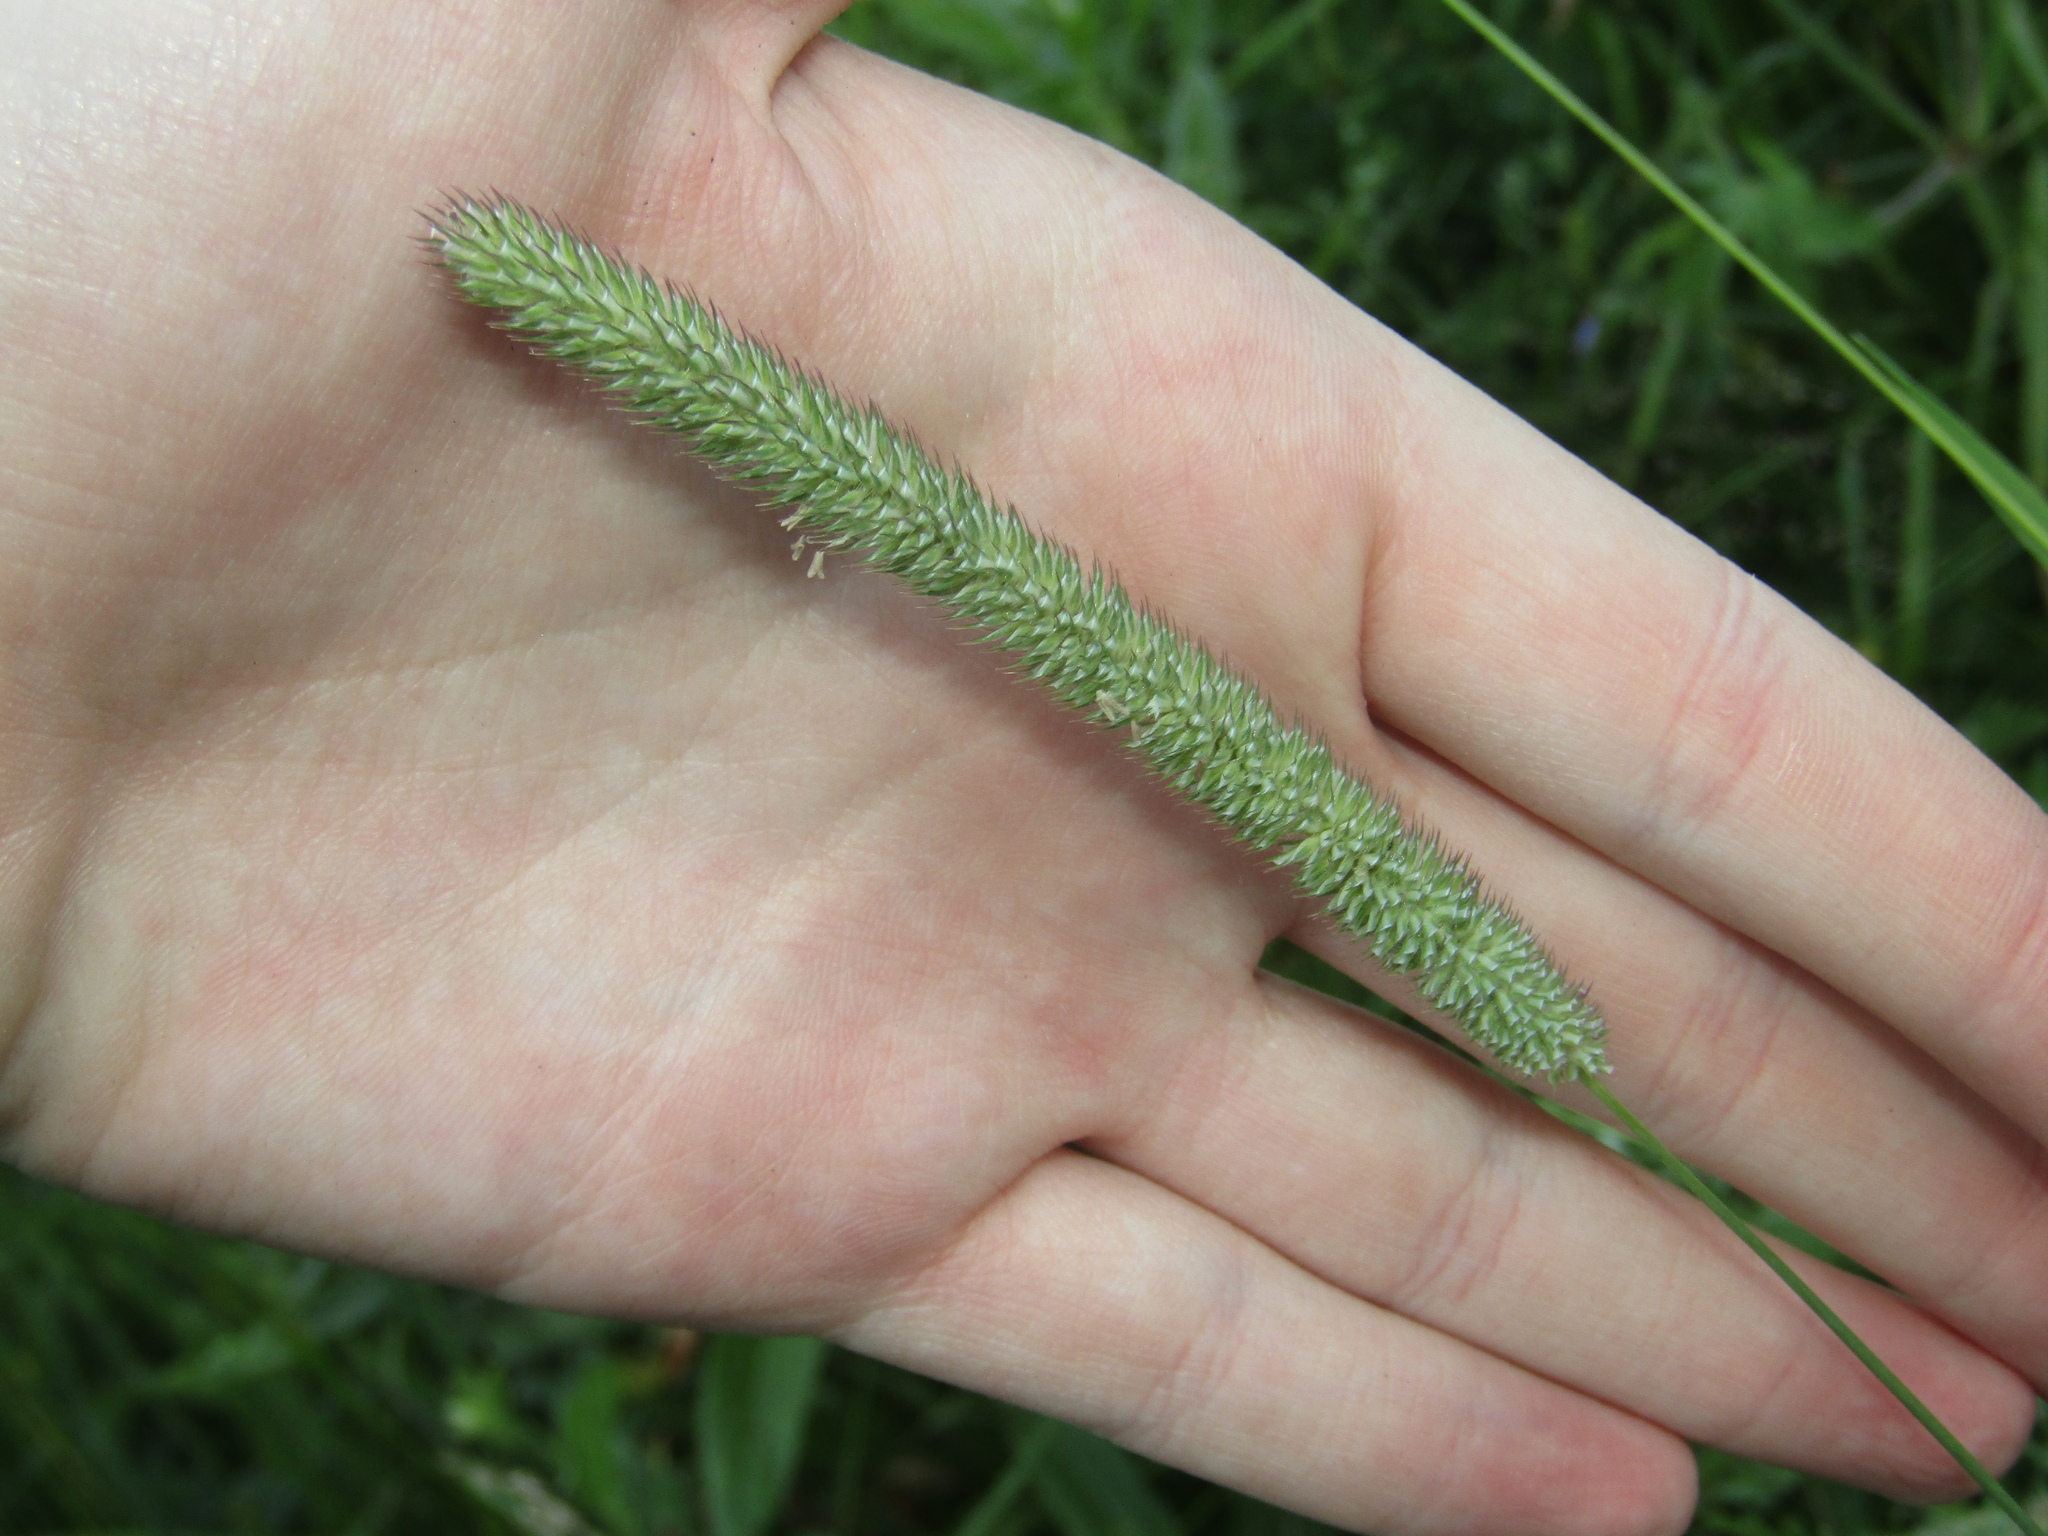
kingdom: Plantae
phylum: Tracheophyta
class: Liliopsida
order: Poales
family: Poaceae
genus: Phleum
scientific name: Phleum pratense
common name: Timothy grass
